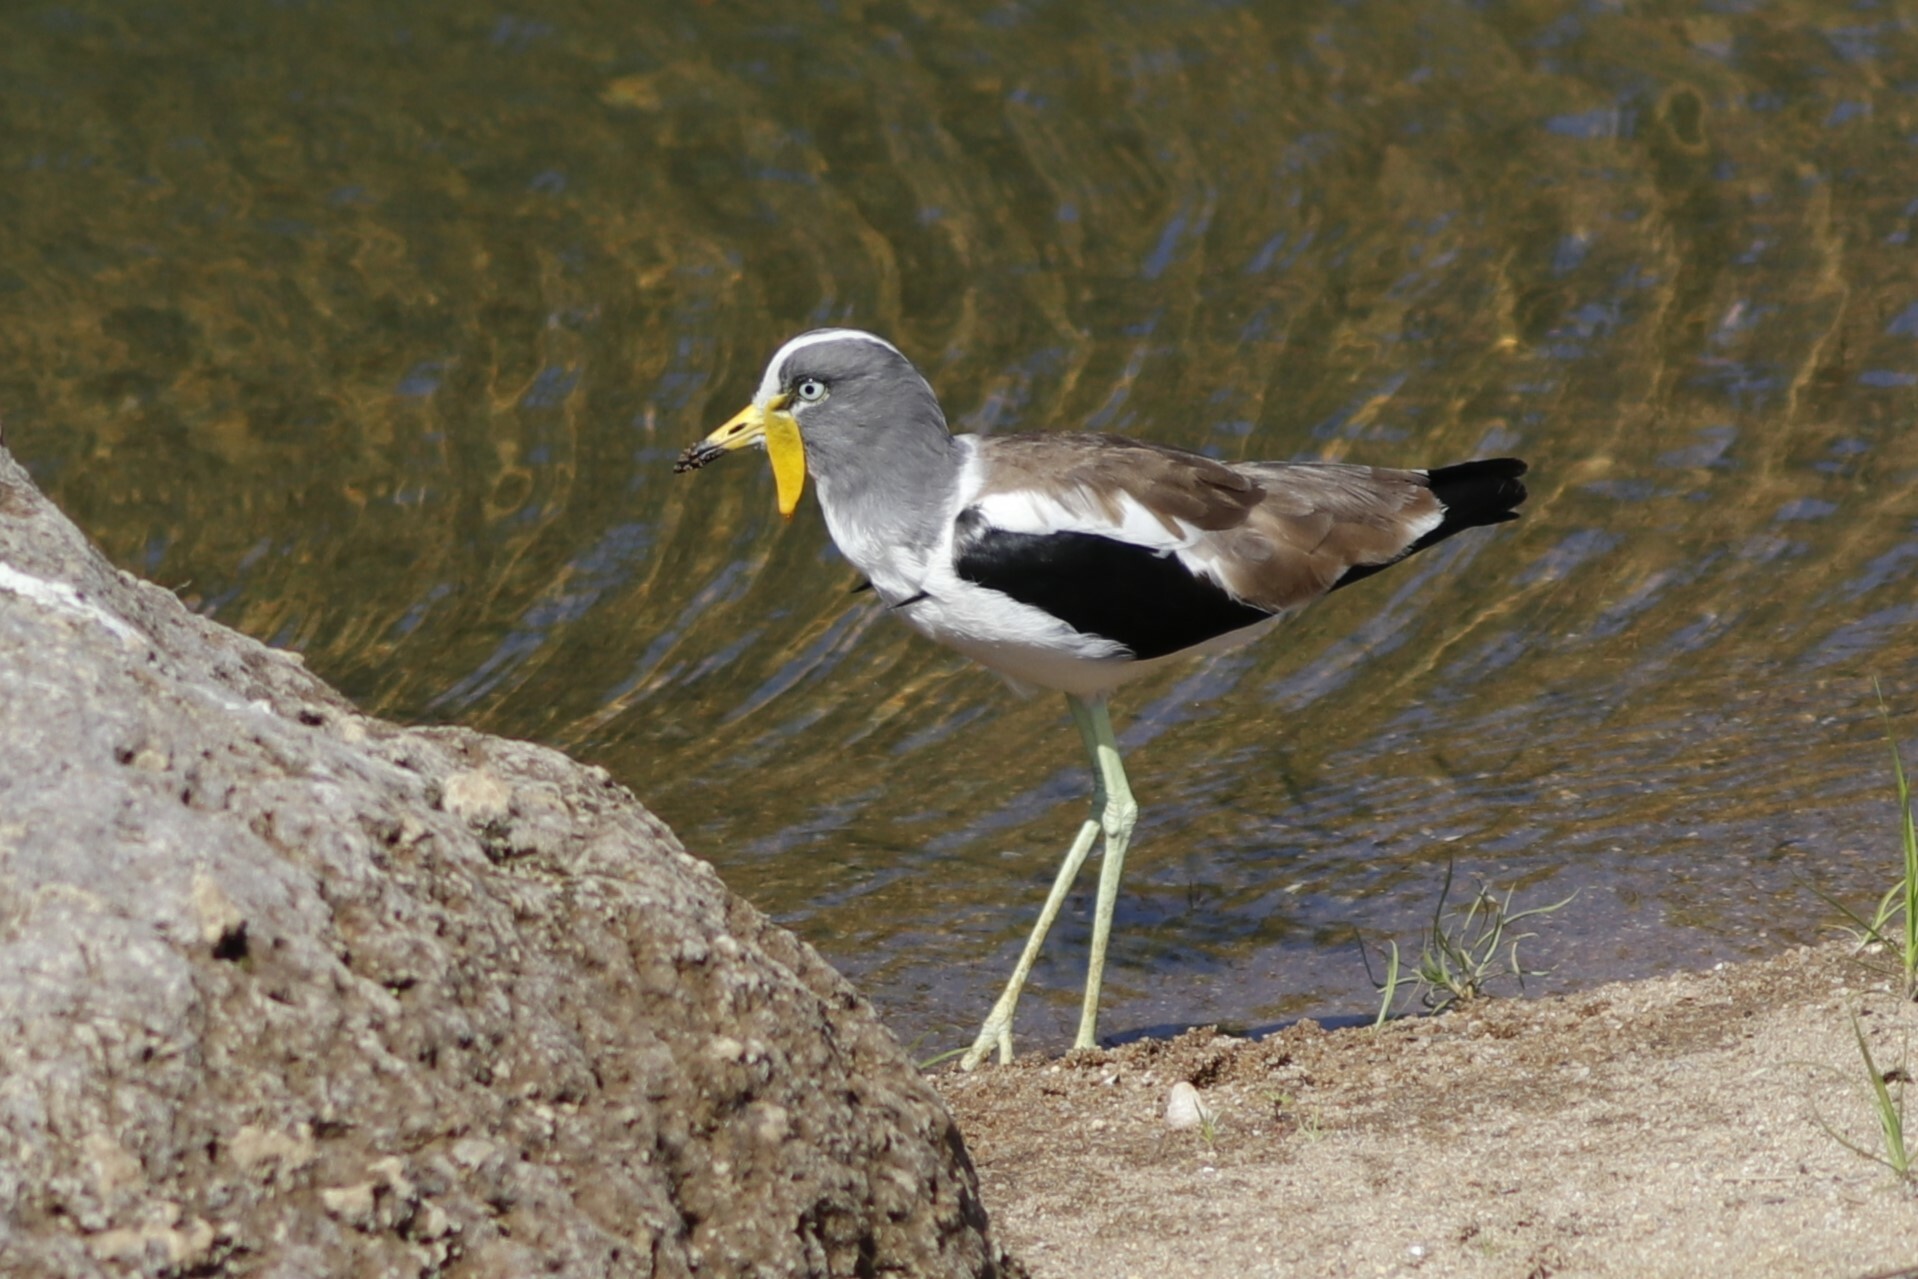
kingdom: Animalia
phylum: Chordata
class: Aves
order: Charadriiformes
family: Charadriidae
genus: Vanellus
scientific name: Vanellus albiceps
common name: White-crowned lapwing
